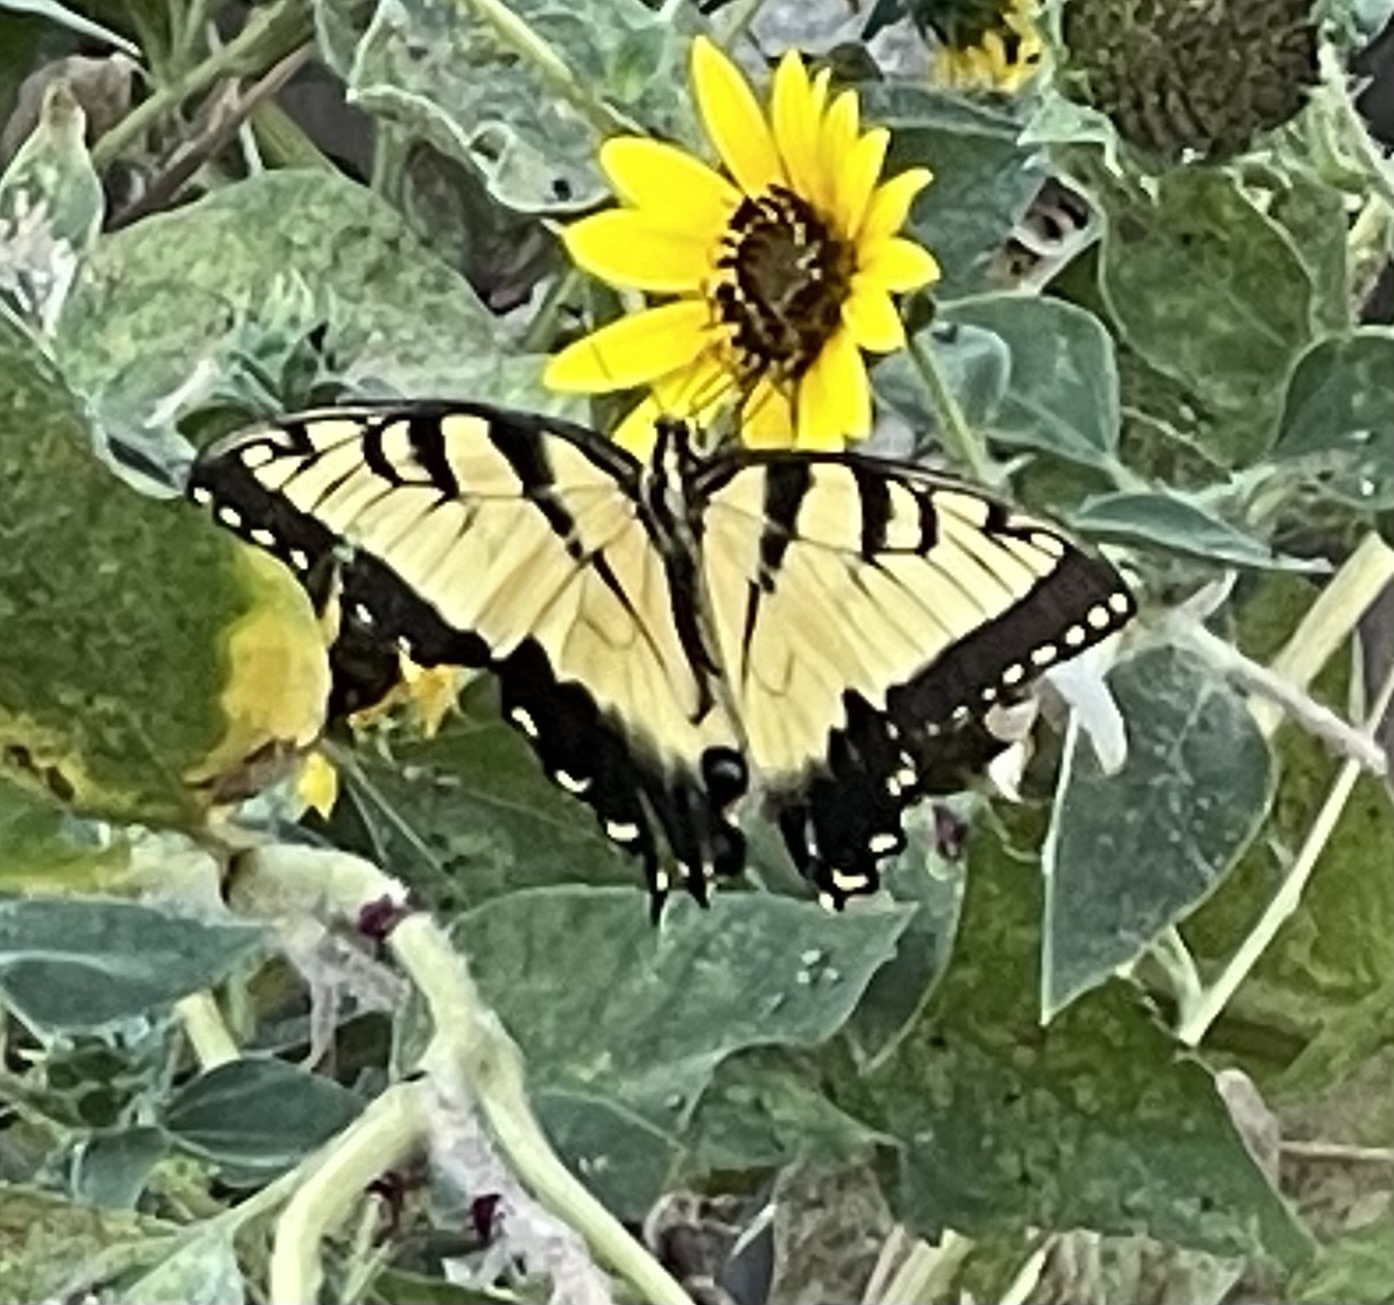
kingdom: Animalia
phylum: Arthropoda
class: Insecta
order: Lepidoptera
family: Papilionidae
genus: Papilio
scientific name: Papilio glaucus
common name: Tiger swallowtail
